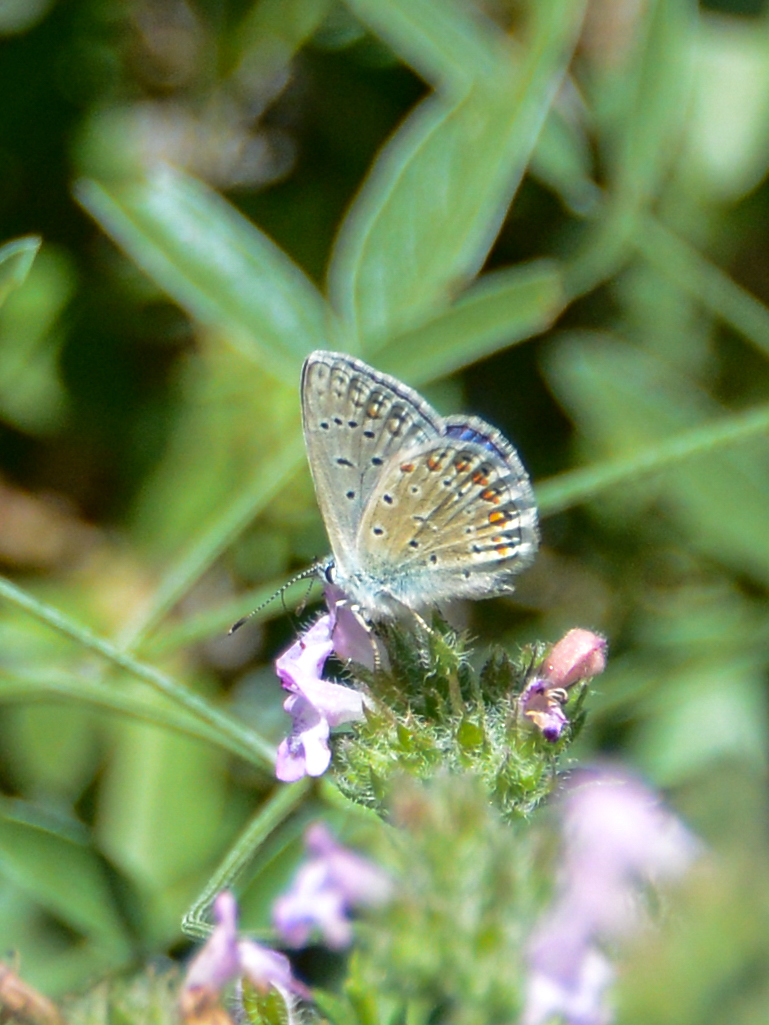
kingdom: Animalia
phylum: Arthropoda
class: Insecta
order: Lepidoptera
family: Lycaenidae
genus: Polyommatus
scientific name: Polyommatus icarus
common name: Common blue
